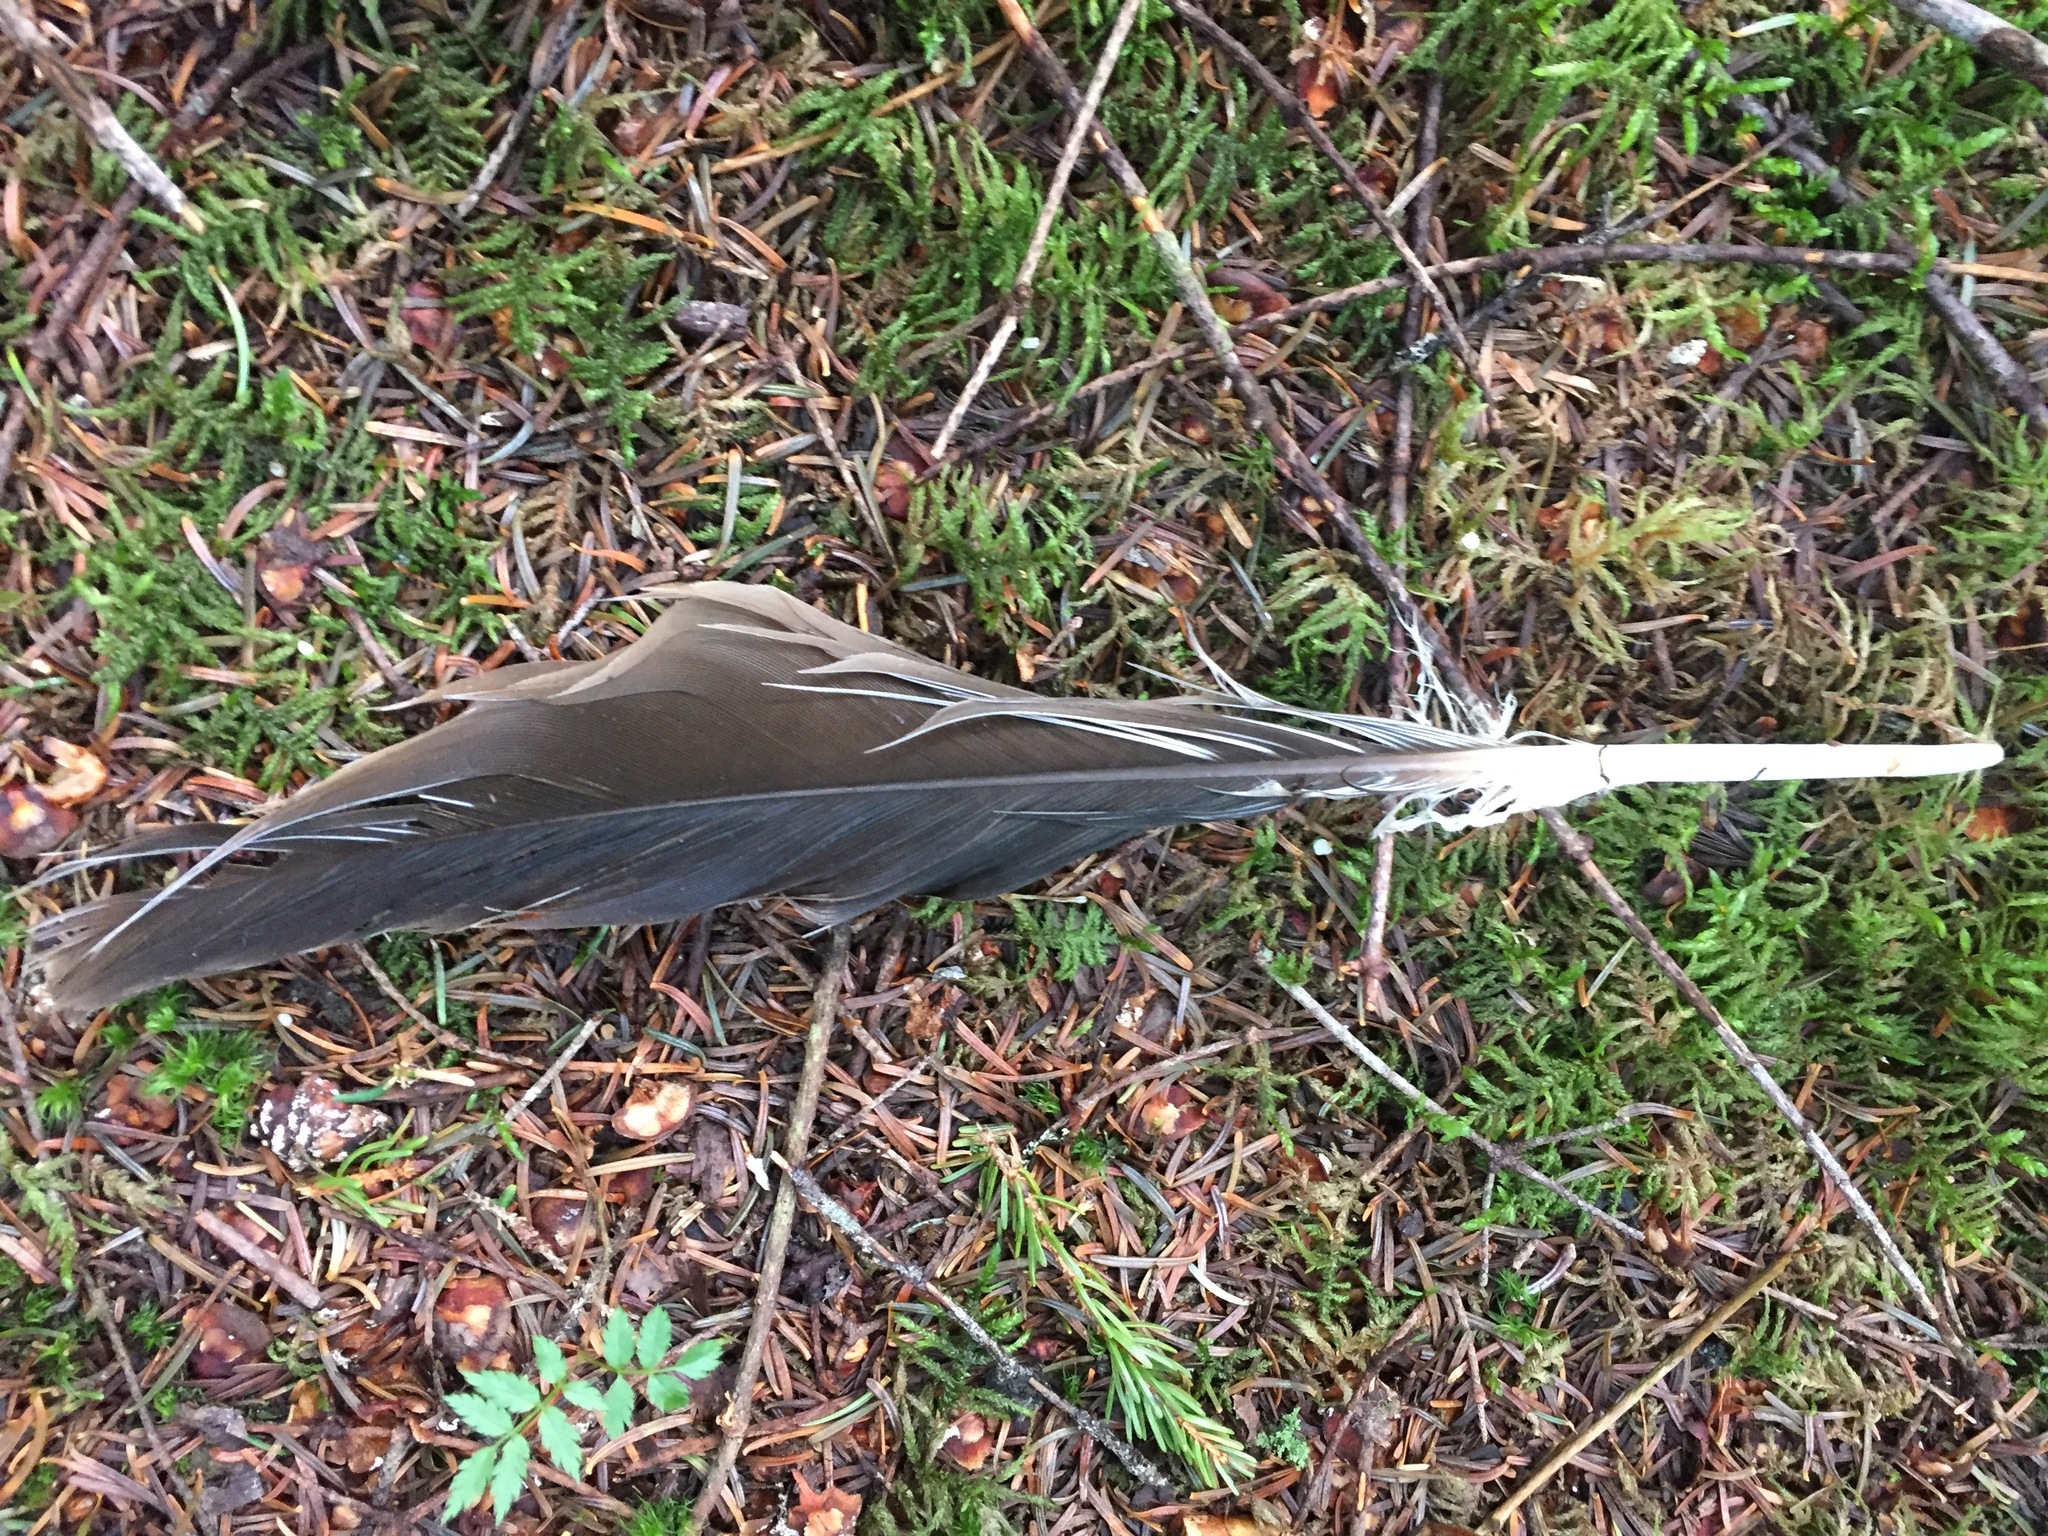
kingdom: Animalia
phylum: Chordata
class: Aves
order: Accipitriformes
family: Cathartidae
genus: Cathartes
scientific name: Cathartes aura
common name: Turkey vulture
